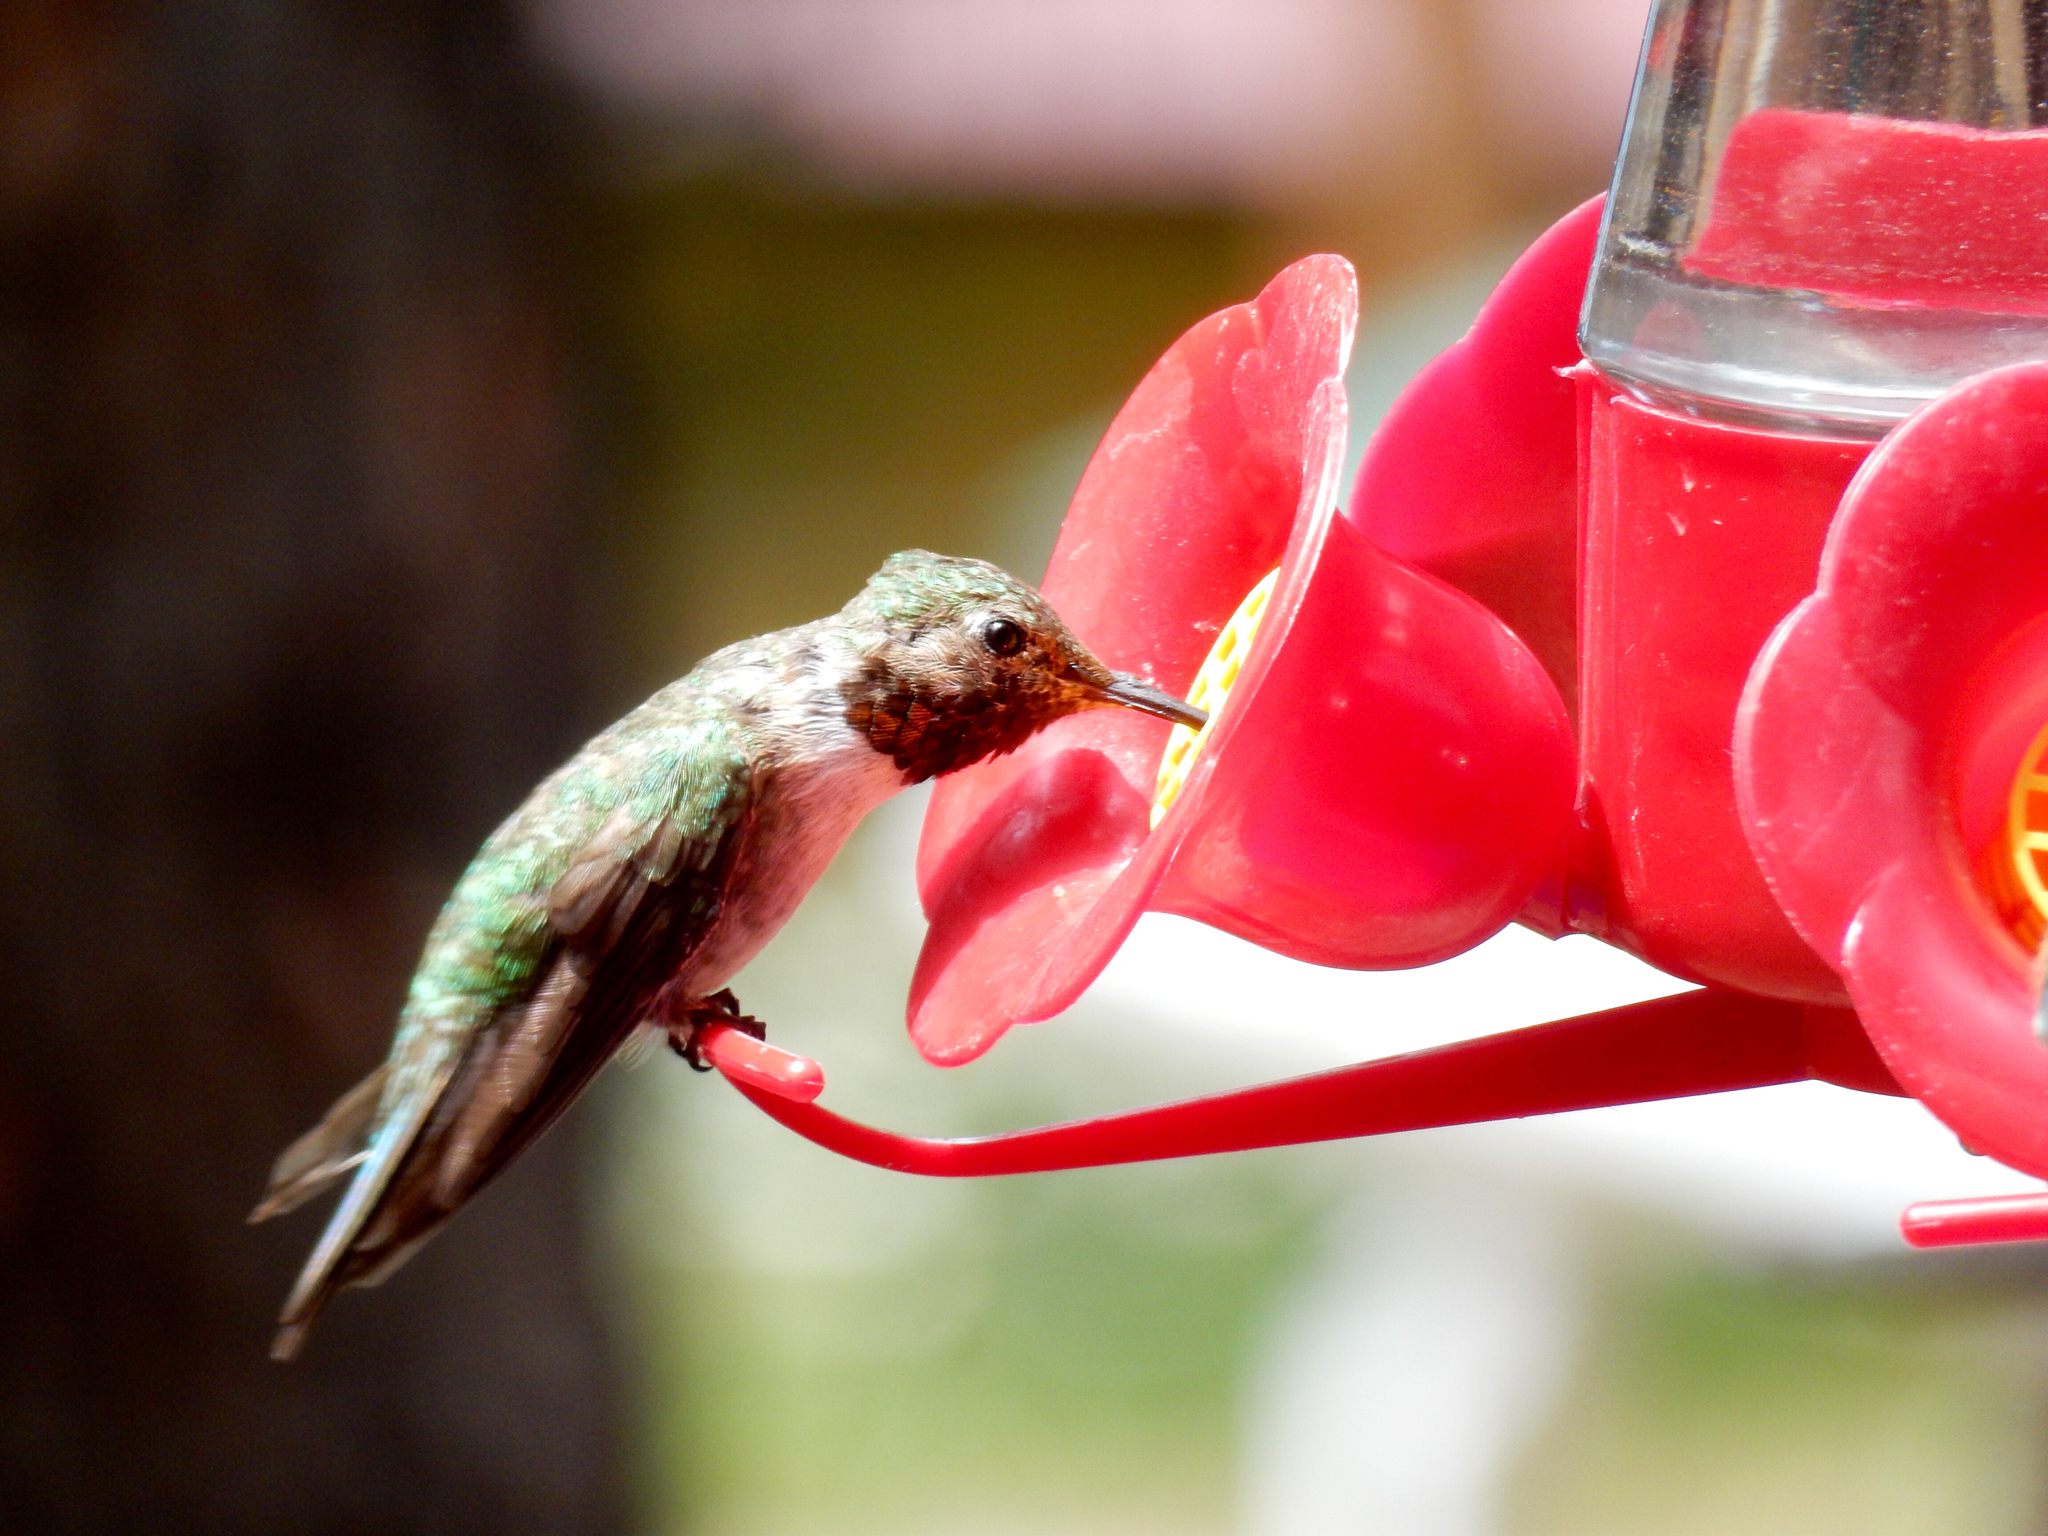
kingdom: Animalia
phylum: Chordata
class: Aves
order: Apodiformes
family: Trochilidae
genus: Selasphorus
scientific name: Selasphorus platycercus
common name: Broad-tailed hummingbird
